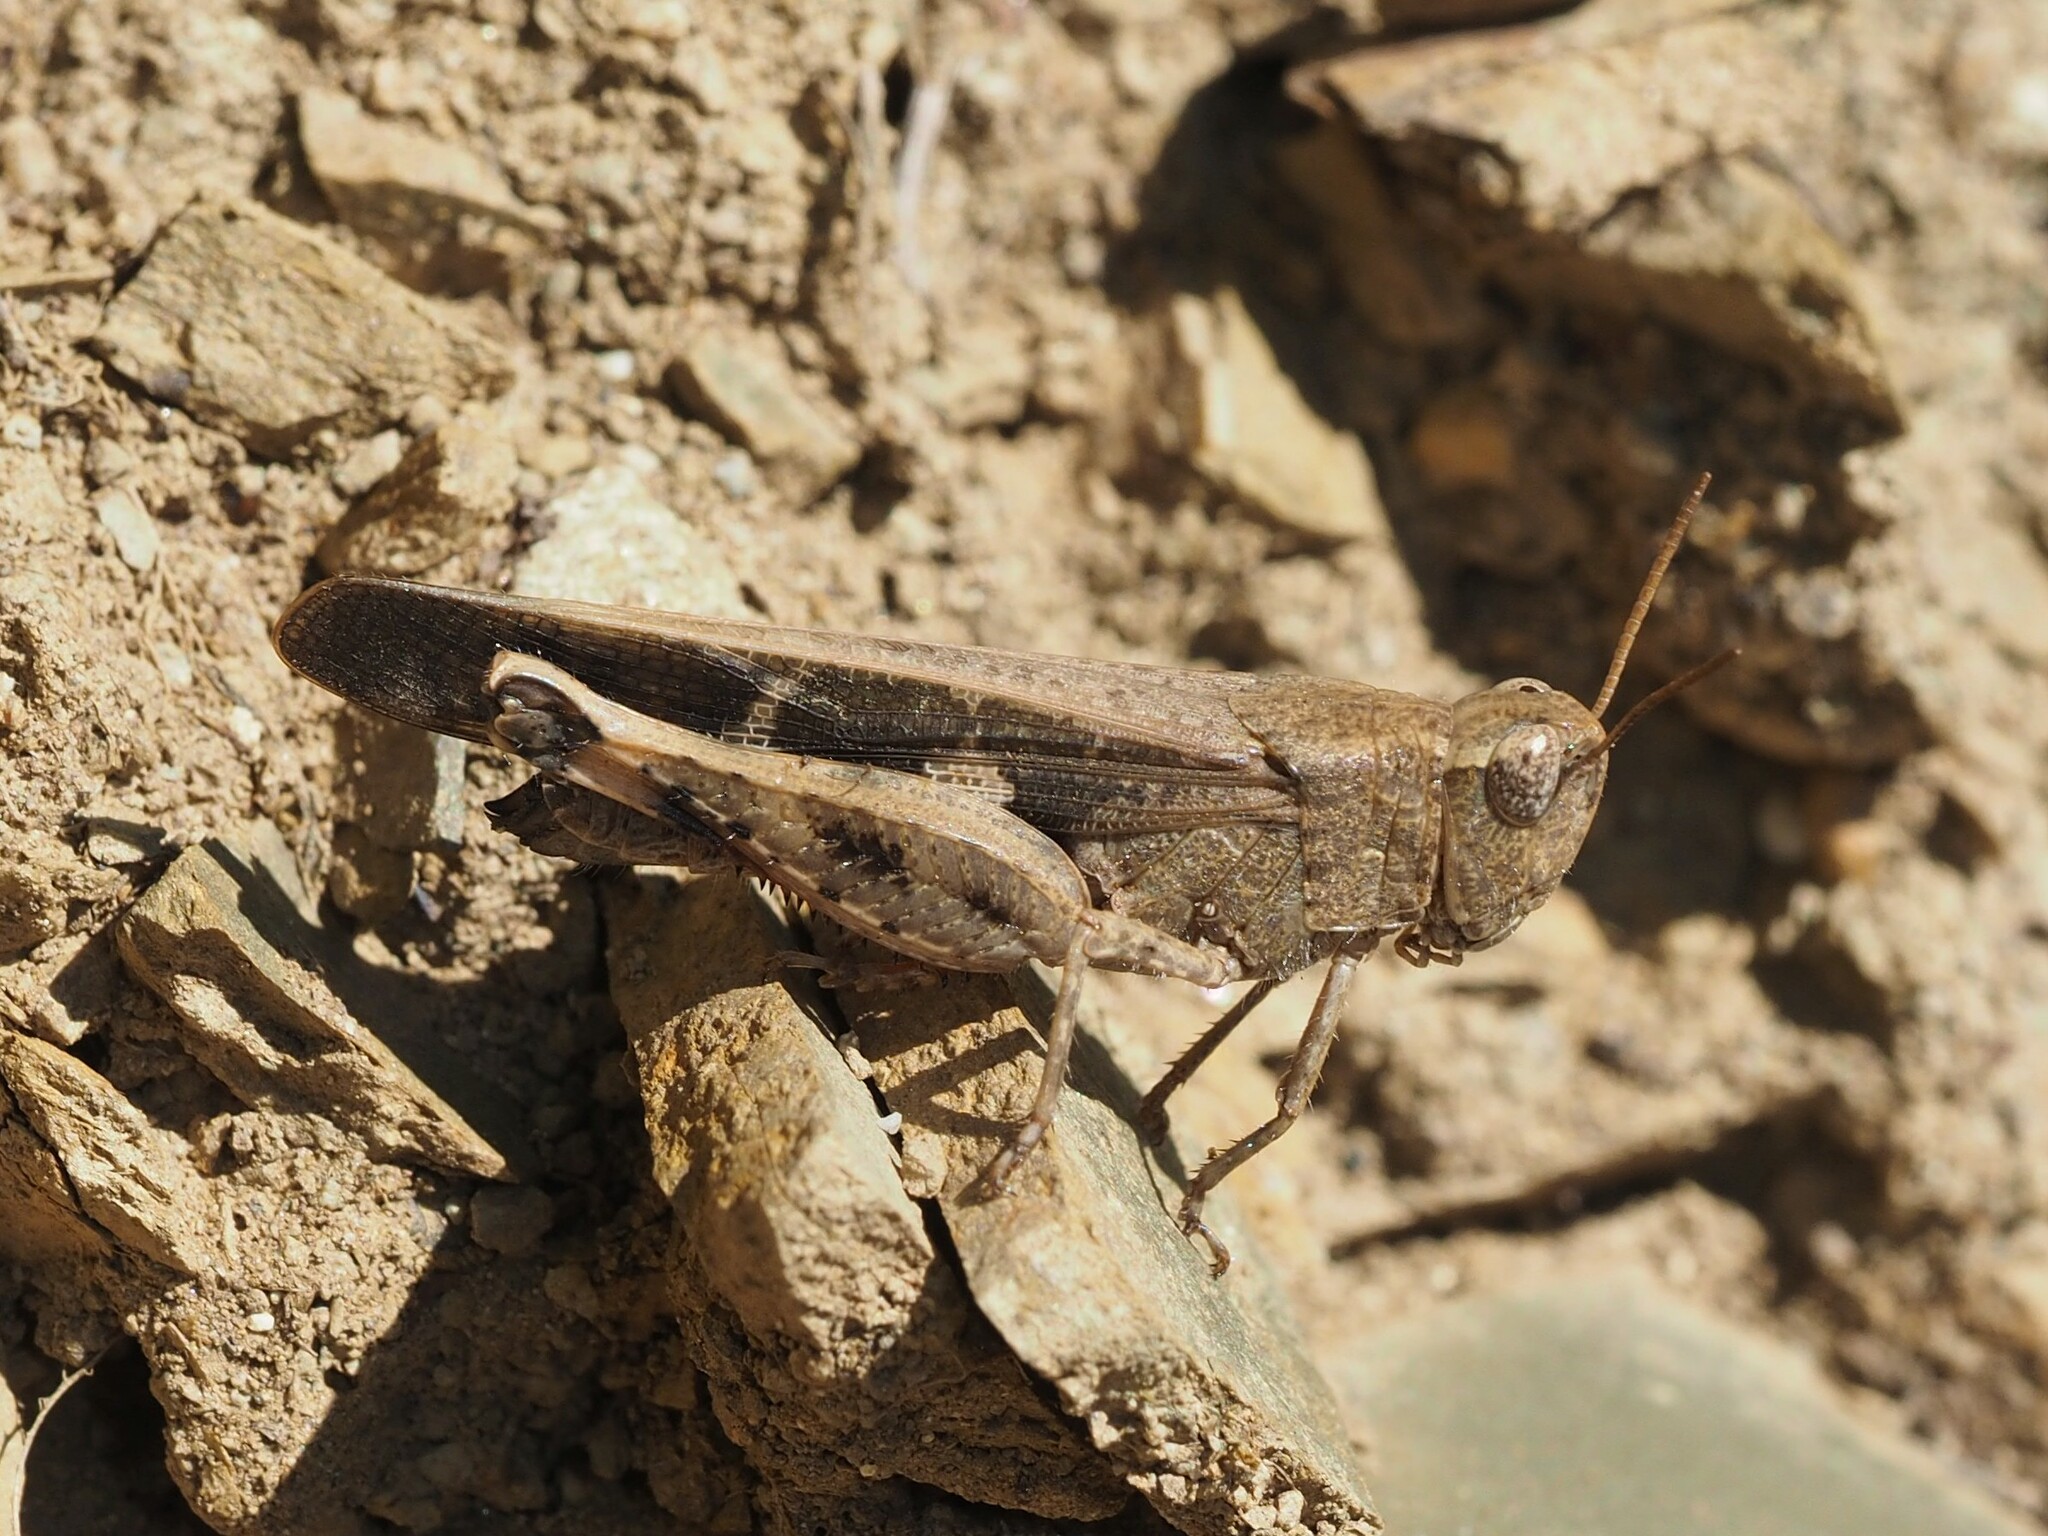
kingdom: Animalia
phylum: Arthropoda
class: Insecta
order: Orthoptera
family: Acrididae
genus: Aiolopus
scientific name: Aiolopus strepens
